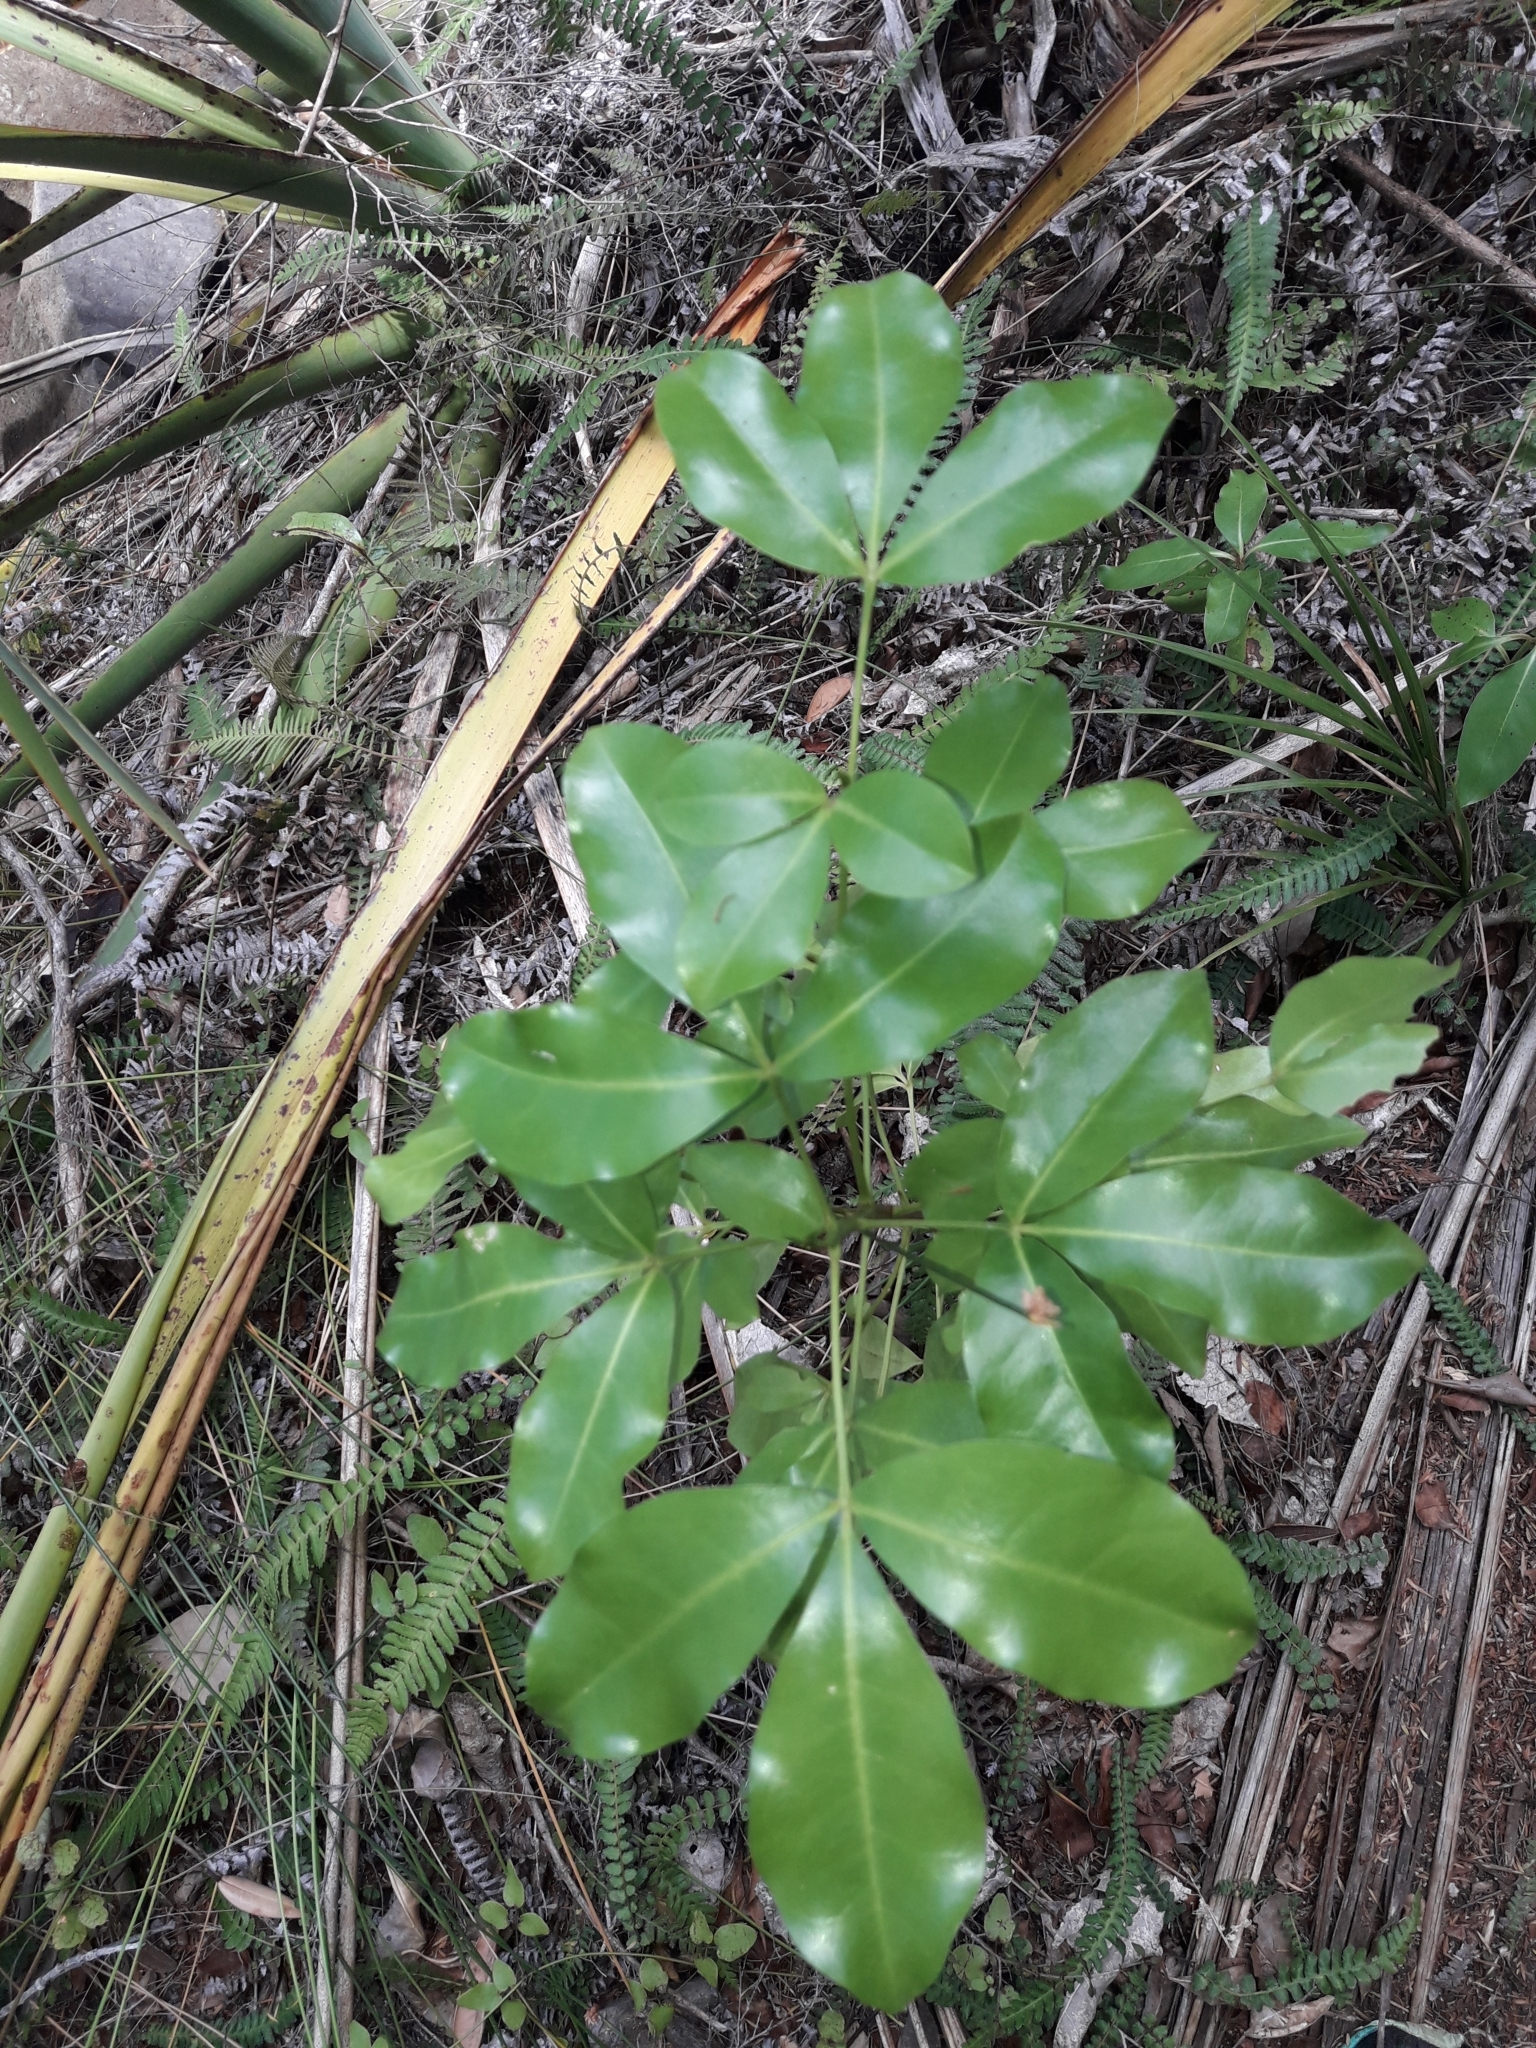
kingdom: Plantae
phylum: Tracheophyta
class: Magnoliopsida
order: Sapindales
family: Rutaceae
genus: Melicope
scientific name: Melicope ternata
